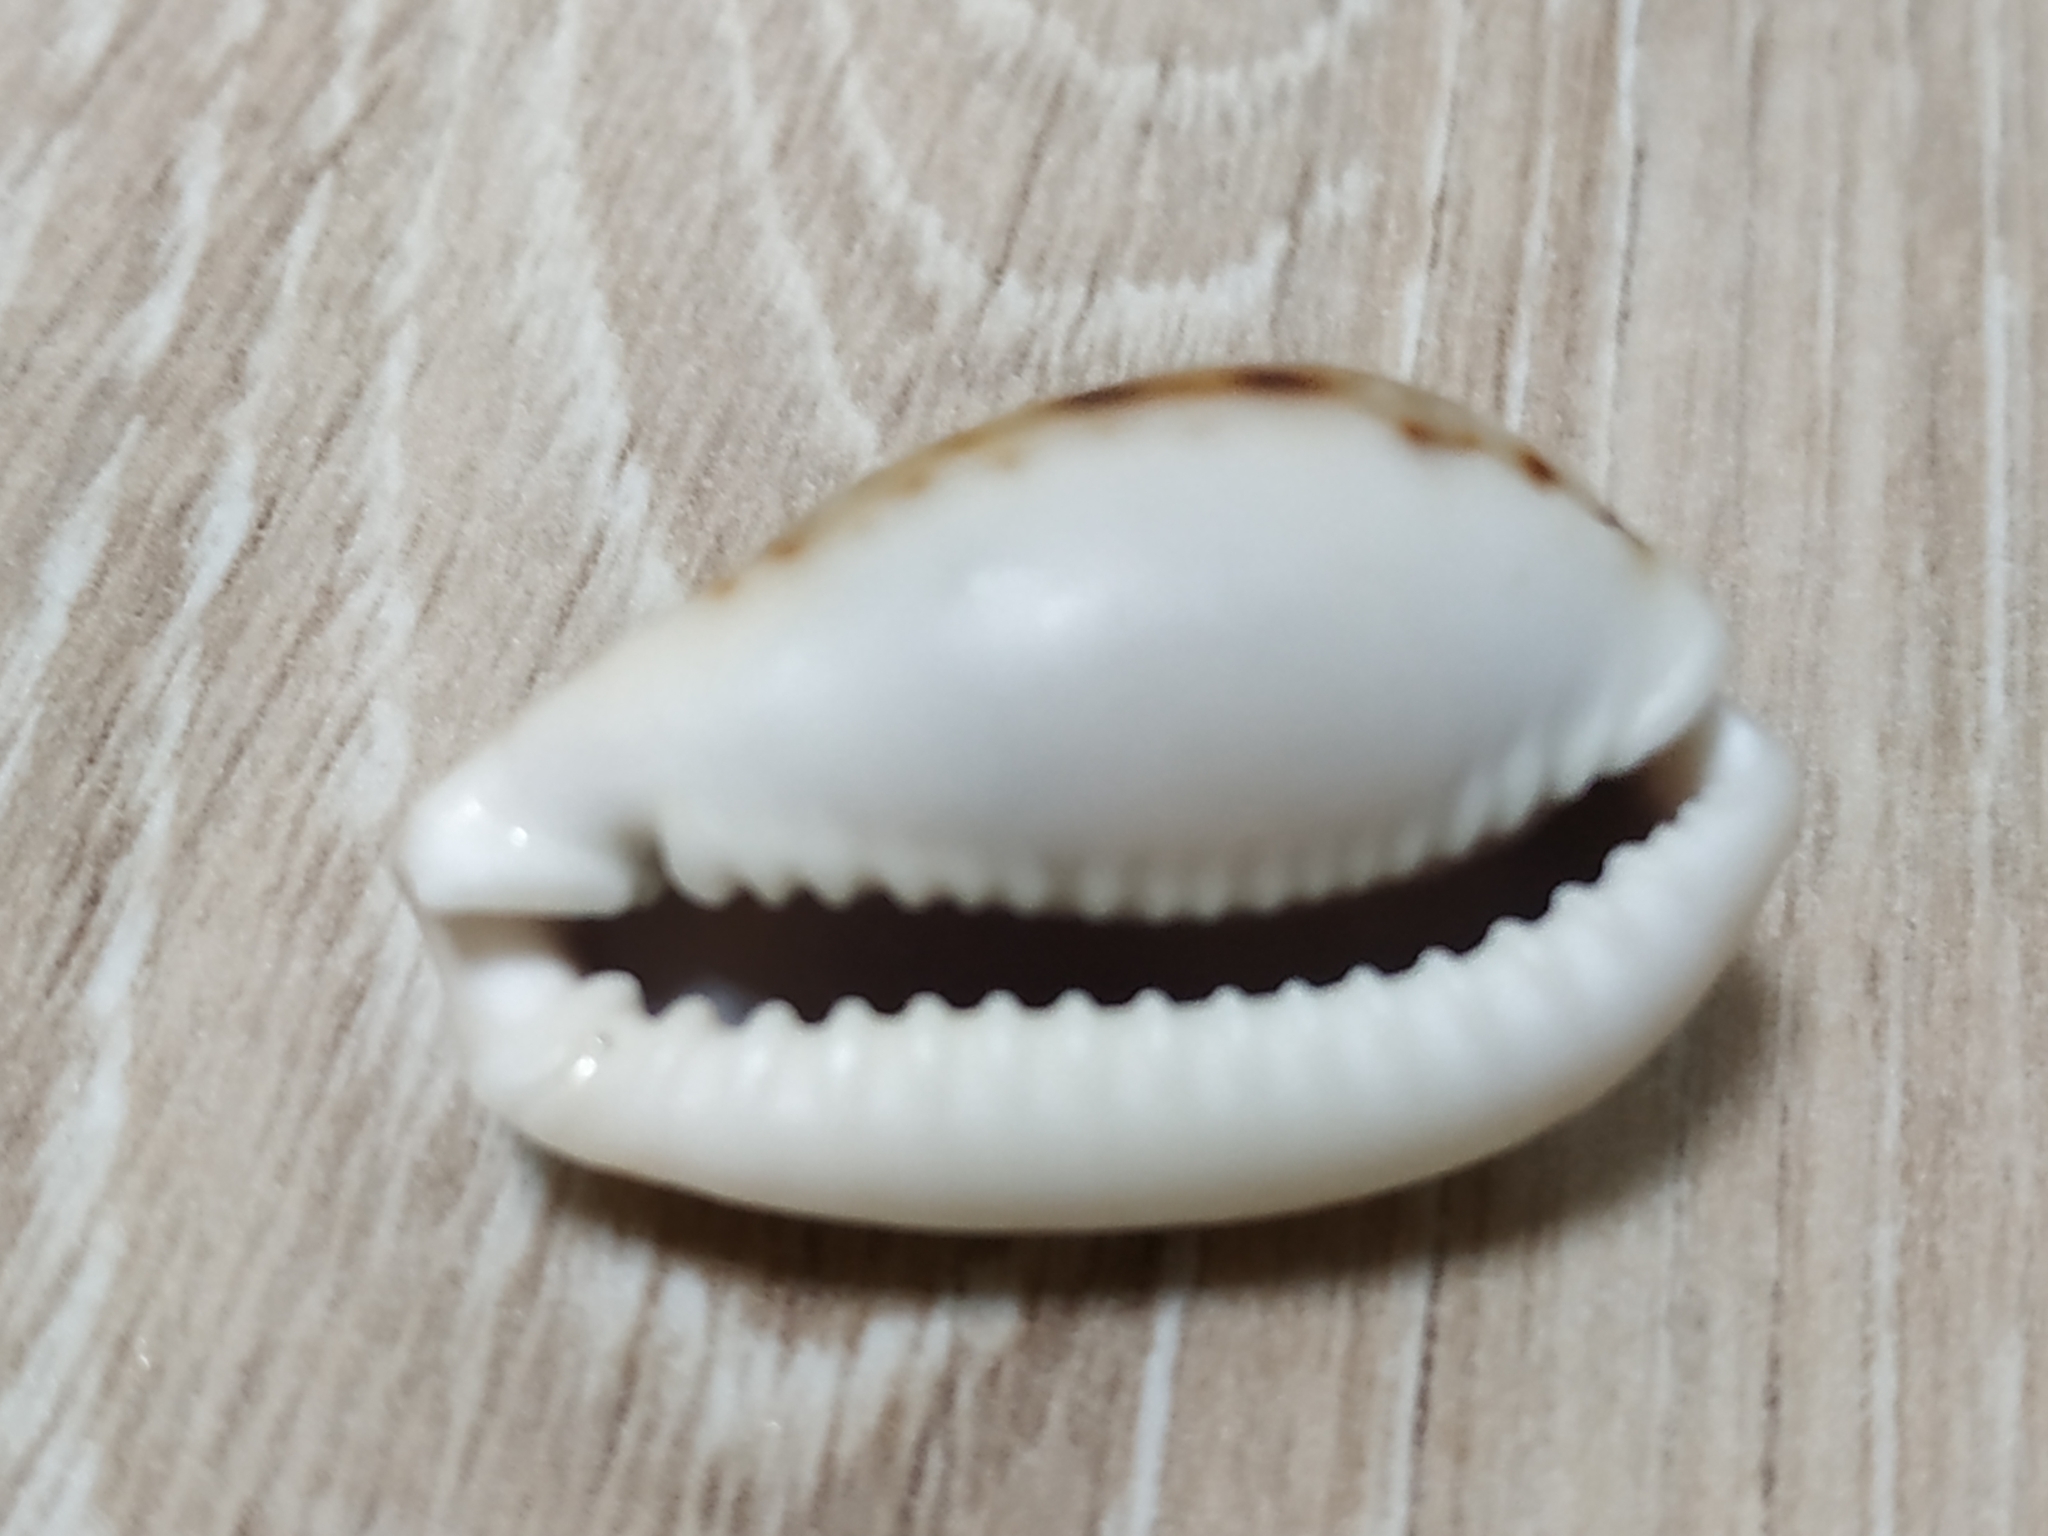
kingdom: Animalia
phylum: Mollusca
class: Gastropoda
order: Littorinimorpha
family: Cypraeidae
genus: Naria
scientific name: Naria labrolineata
